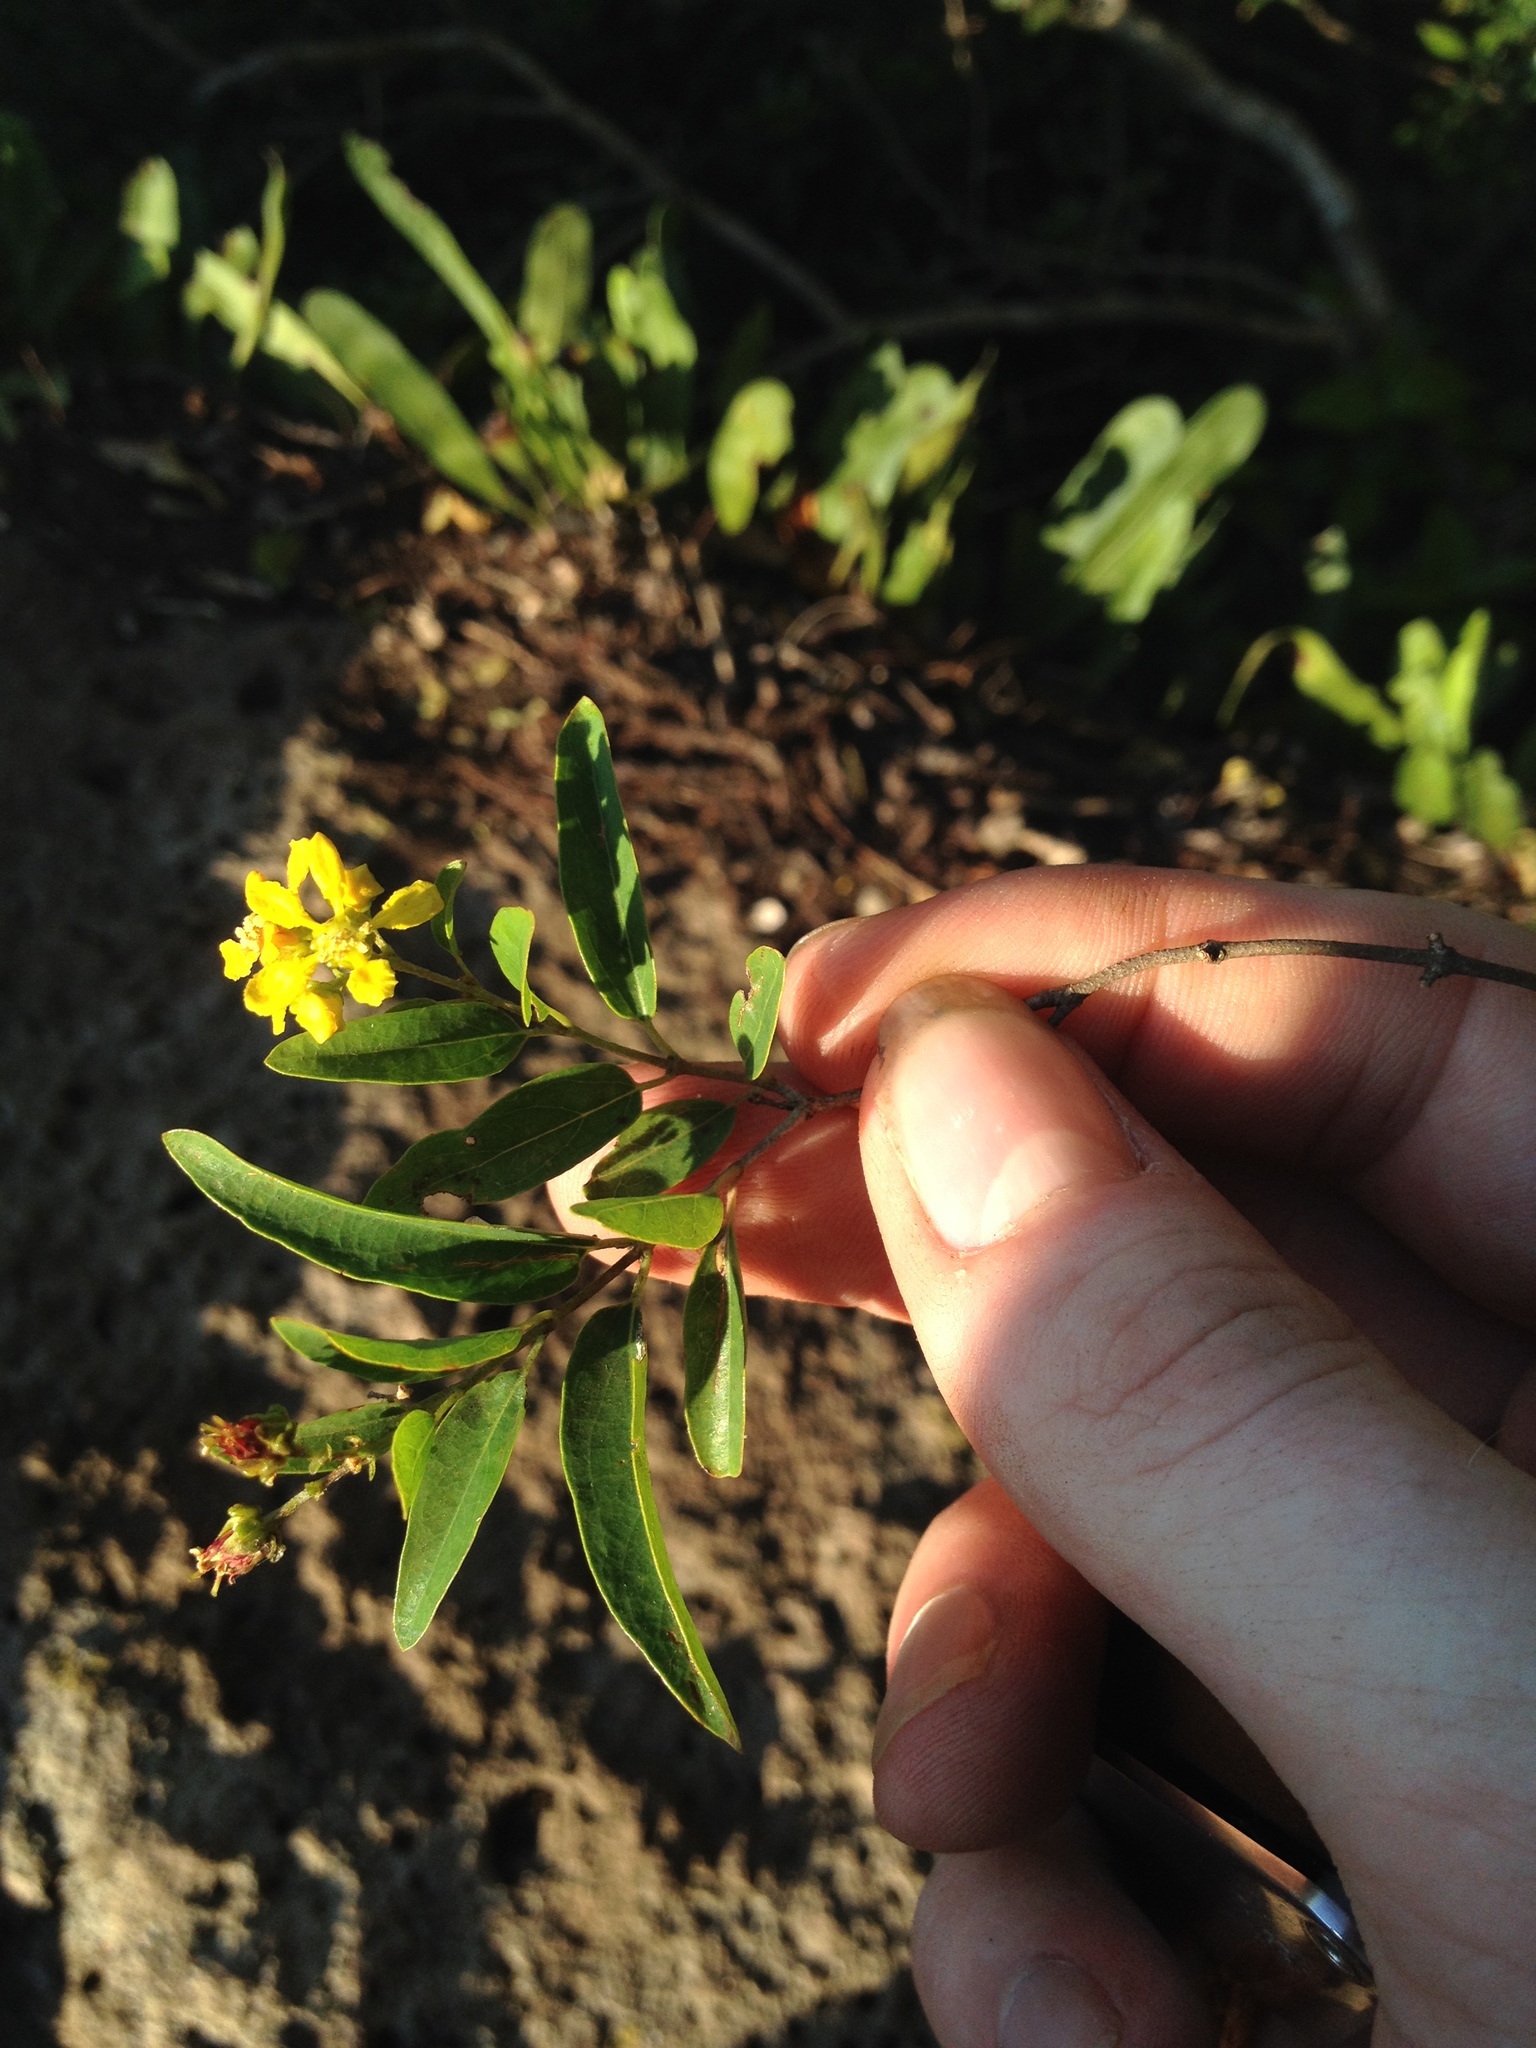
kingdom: Plantae
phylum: Tracheophyta
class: Magnoliopsida
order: Malpighiales
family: Malpighiaceae
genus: Heteropterys
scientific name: Heteropterys glabra
